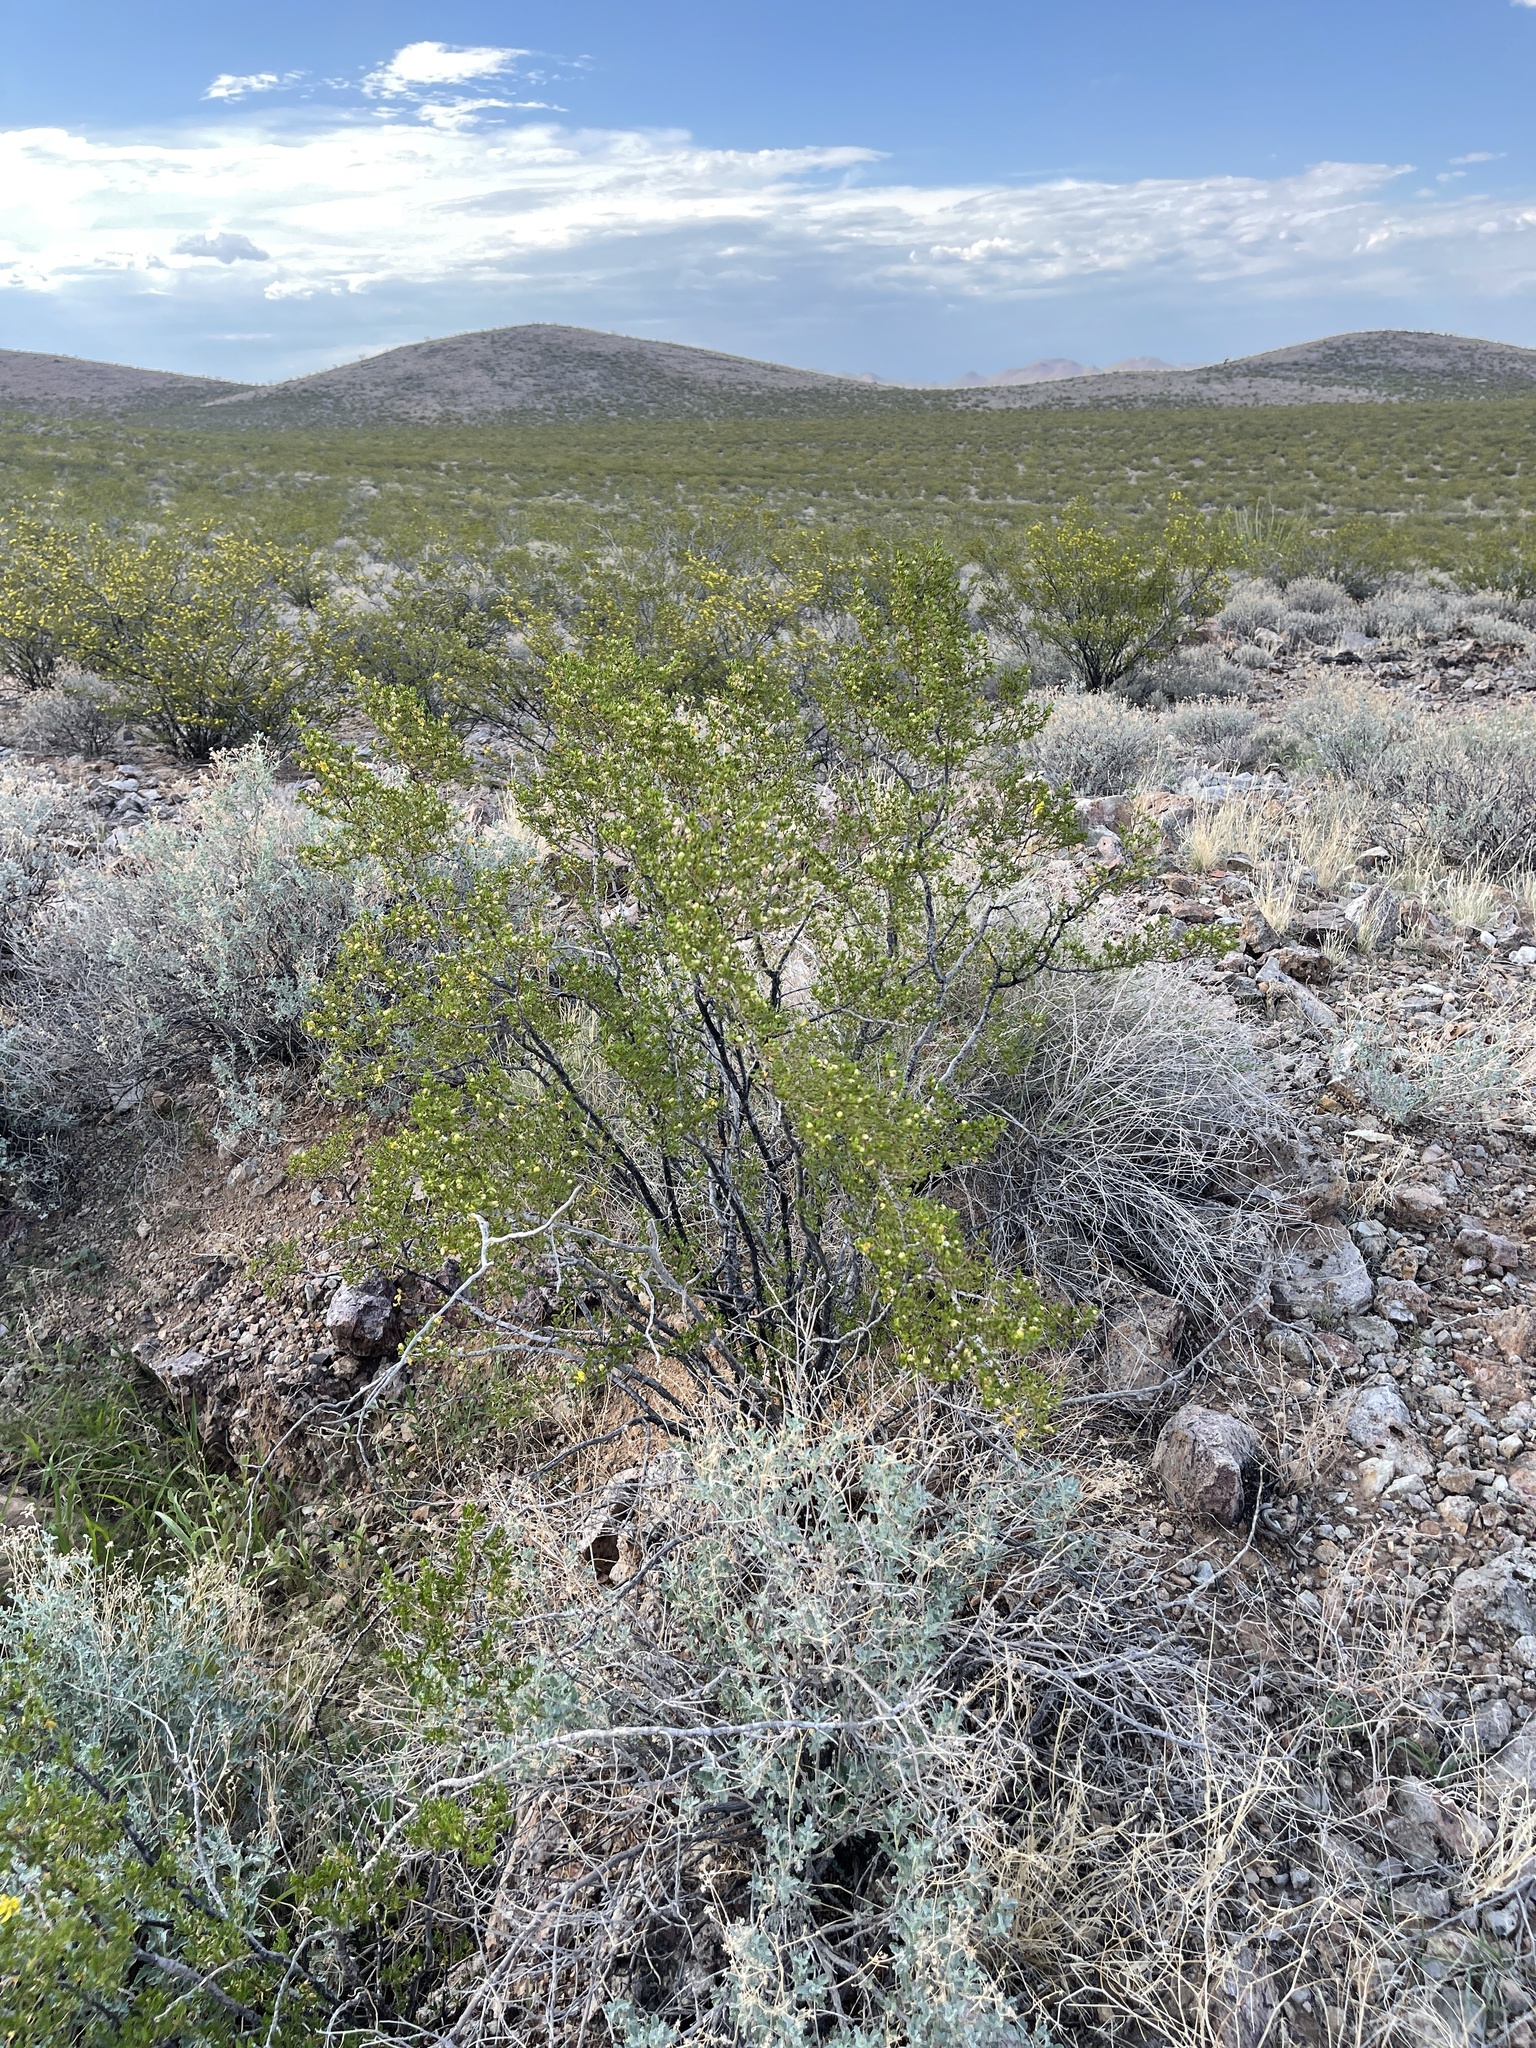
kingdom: Plantae
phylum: Tracheophyta
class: Magnoliopsida
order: Zygophyllales
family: Zygophyllaceae
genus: Larrea
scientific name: Larrea tridentata
